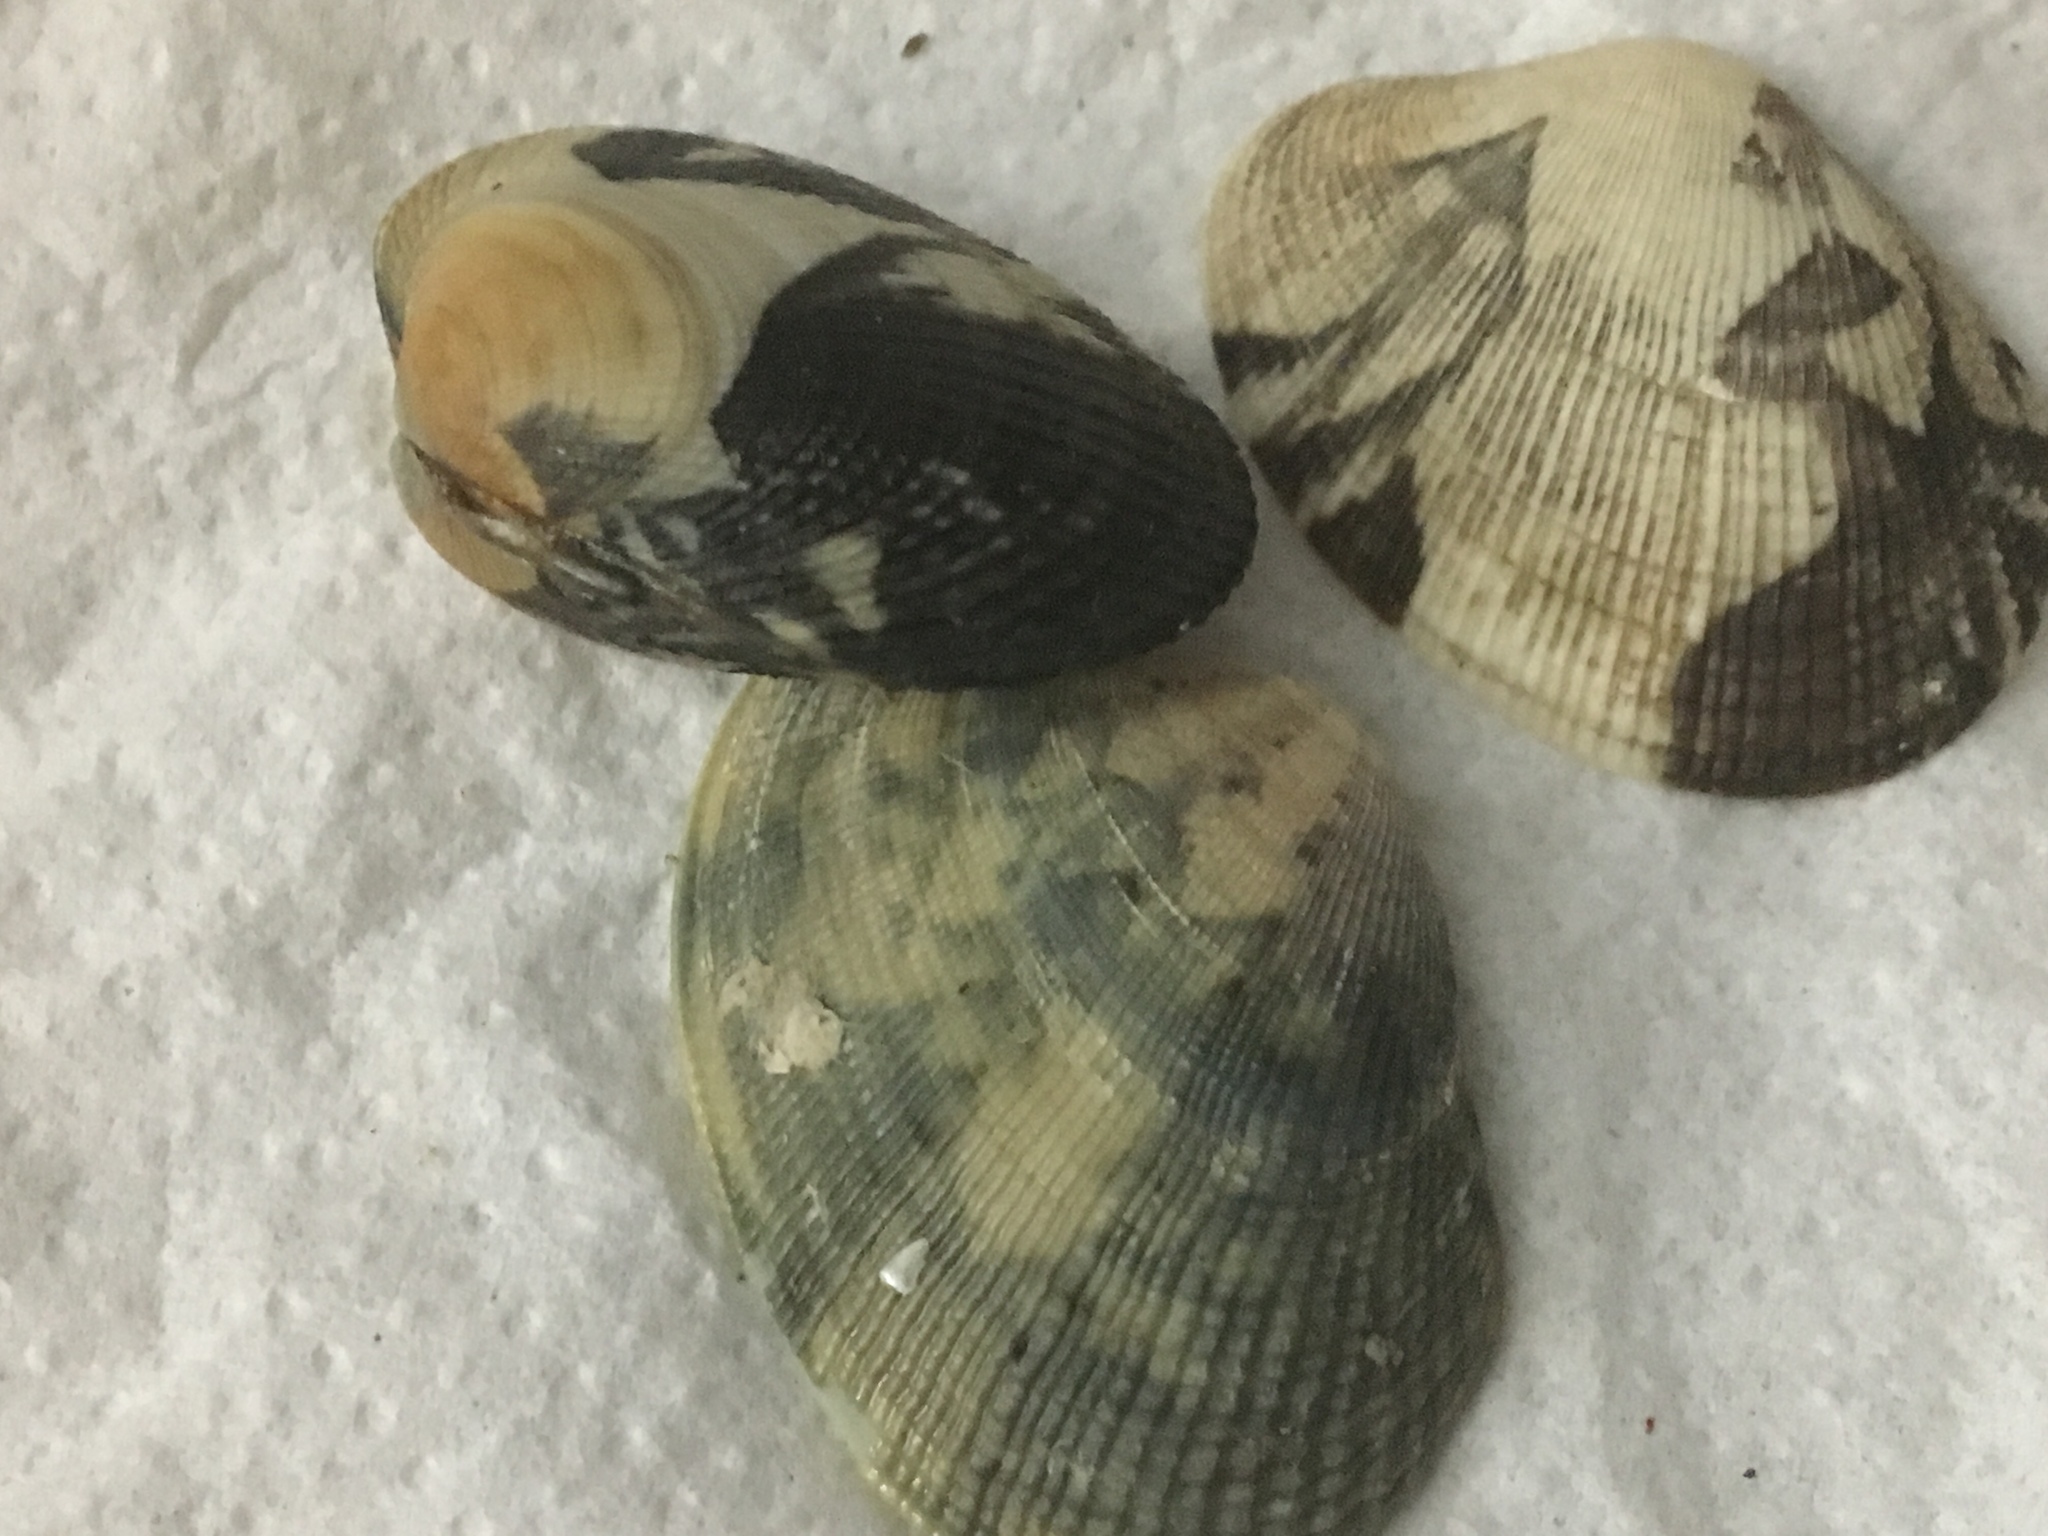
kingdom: Animalia
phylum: Mollusca
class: Bivalvia
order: Venerida
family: Veneridae
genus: Ruditapes
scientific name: Ruditapes philippinarum
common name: Manila clam
